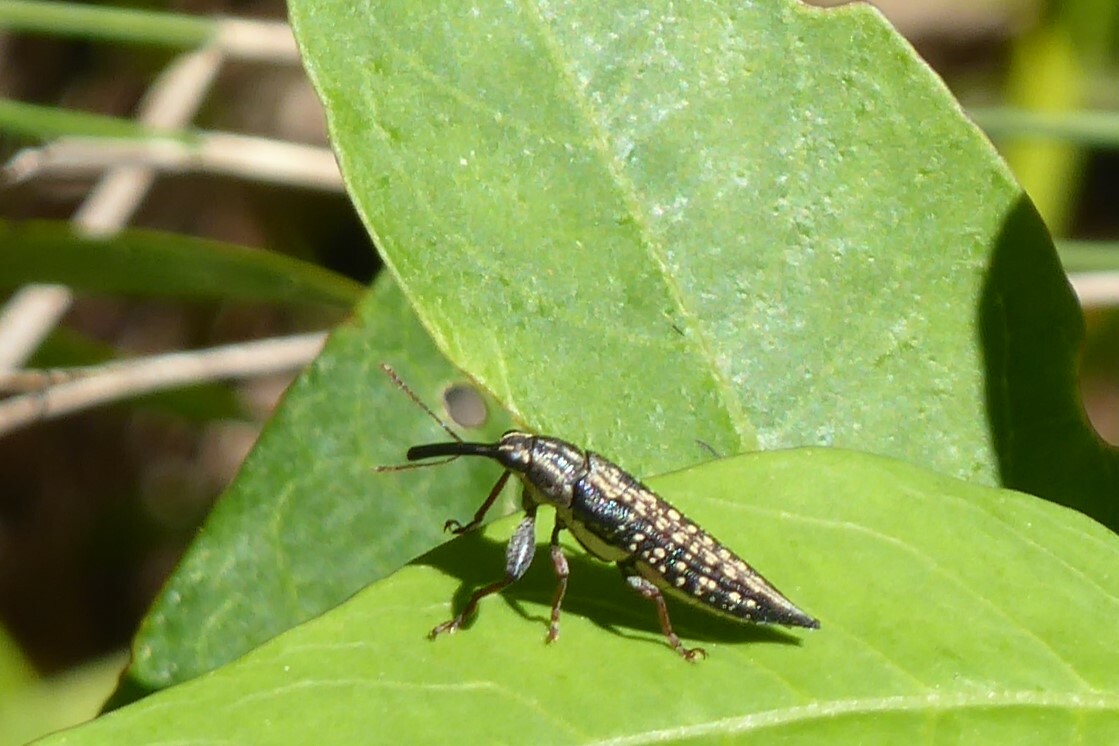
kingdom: Animalia
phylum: Arthropoda
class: Insecta
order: Coleoptera
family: Belidae
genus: Rhinotia
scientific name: Rhinotia lineata
